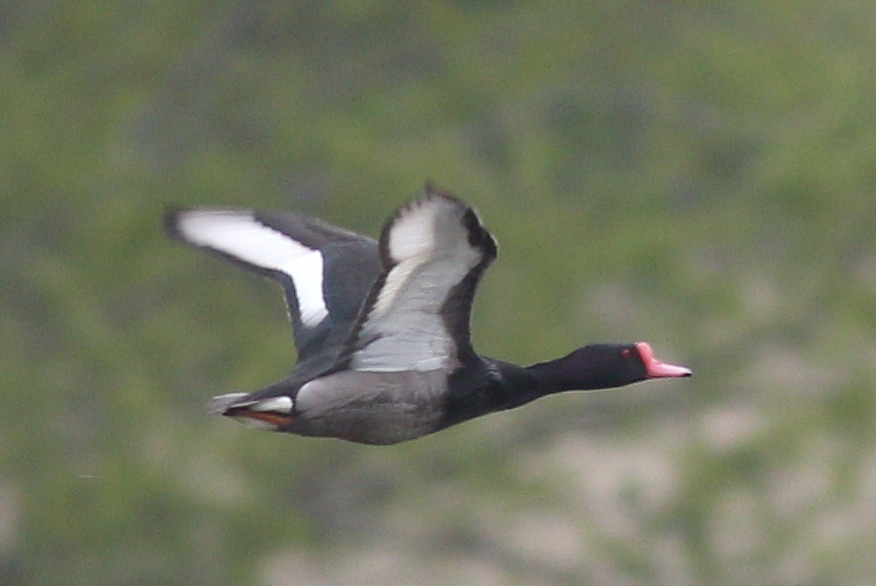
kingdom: Animalia
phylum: Chordata
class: Aves
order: Anseriformes
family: Anatidae
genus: Netta
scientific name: Netta peposaca
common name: Rosy-billed pochard
